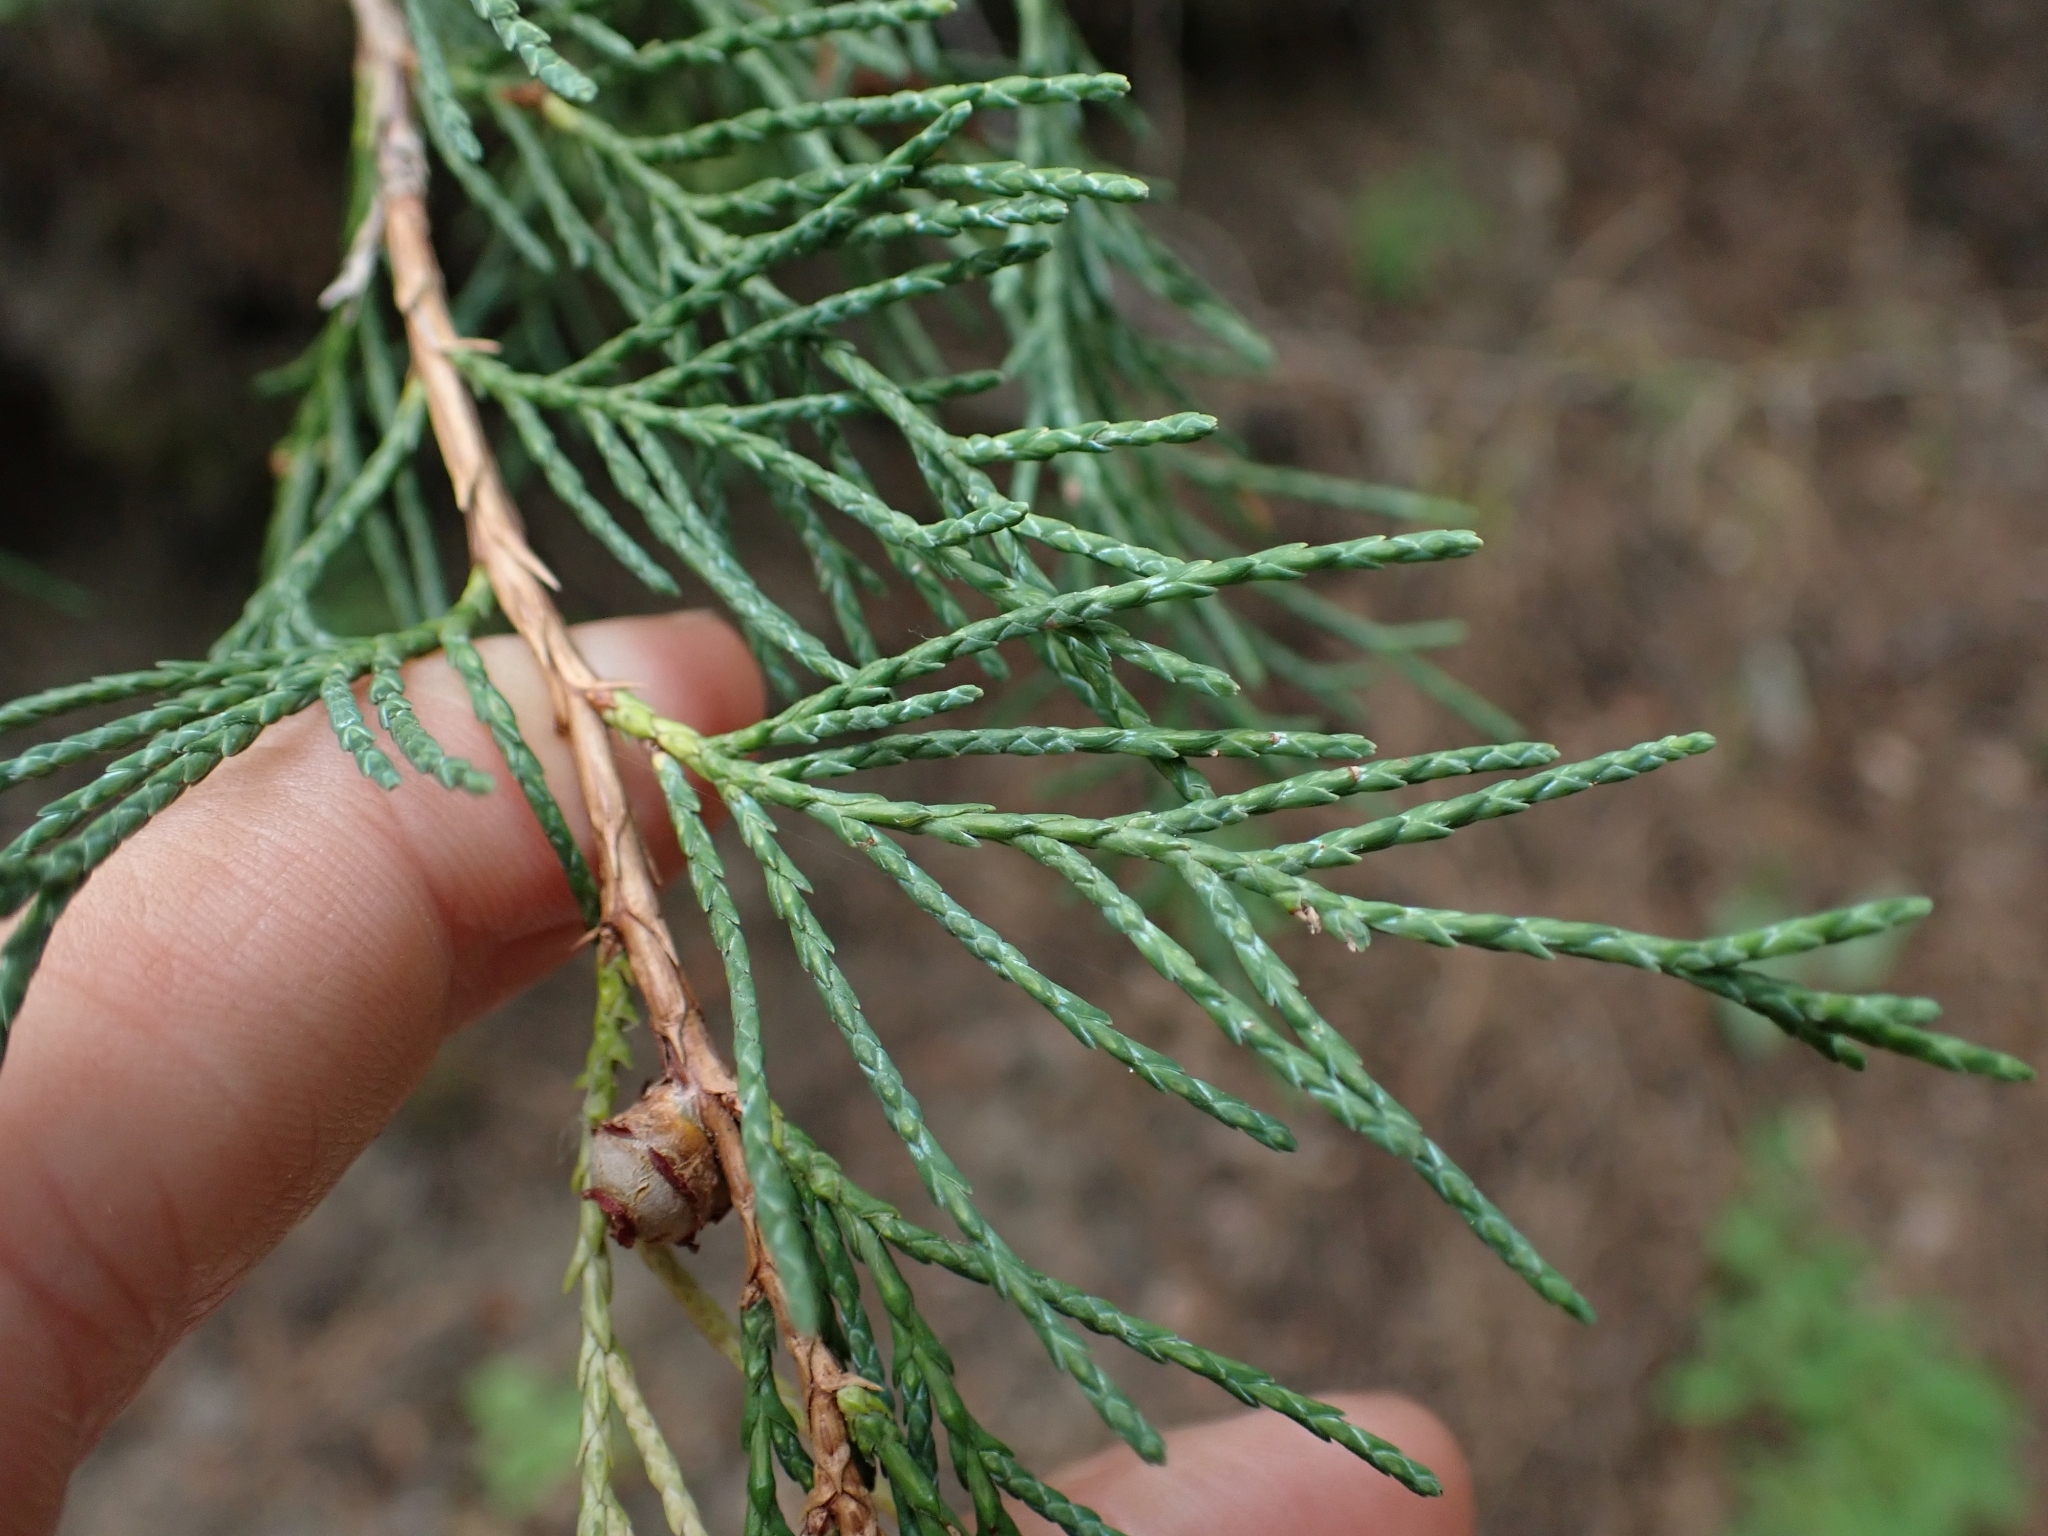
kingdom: Plantae
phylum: Tracheophyta
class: Pinopsida
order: Pinales
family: Cupressaceae
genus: Juniperus
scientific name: Juniperus scopulorum
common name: Rocky mountain juniper
